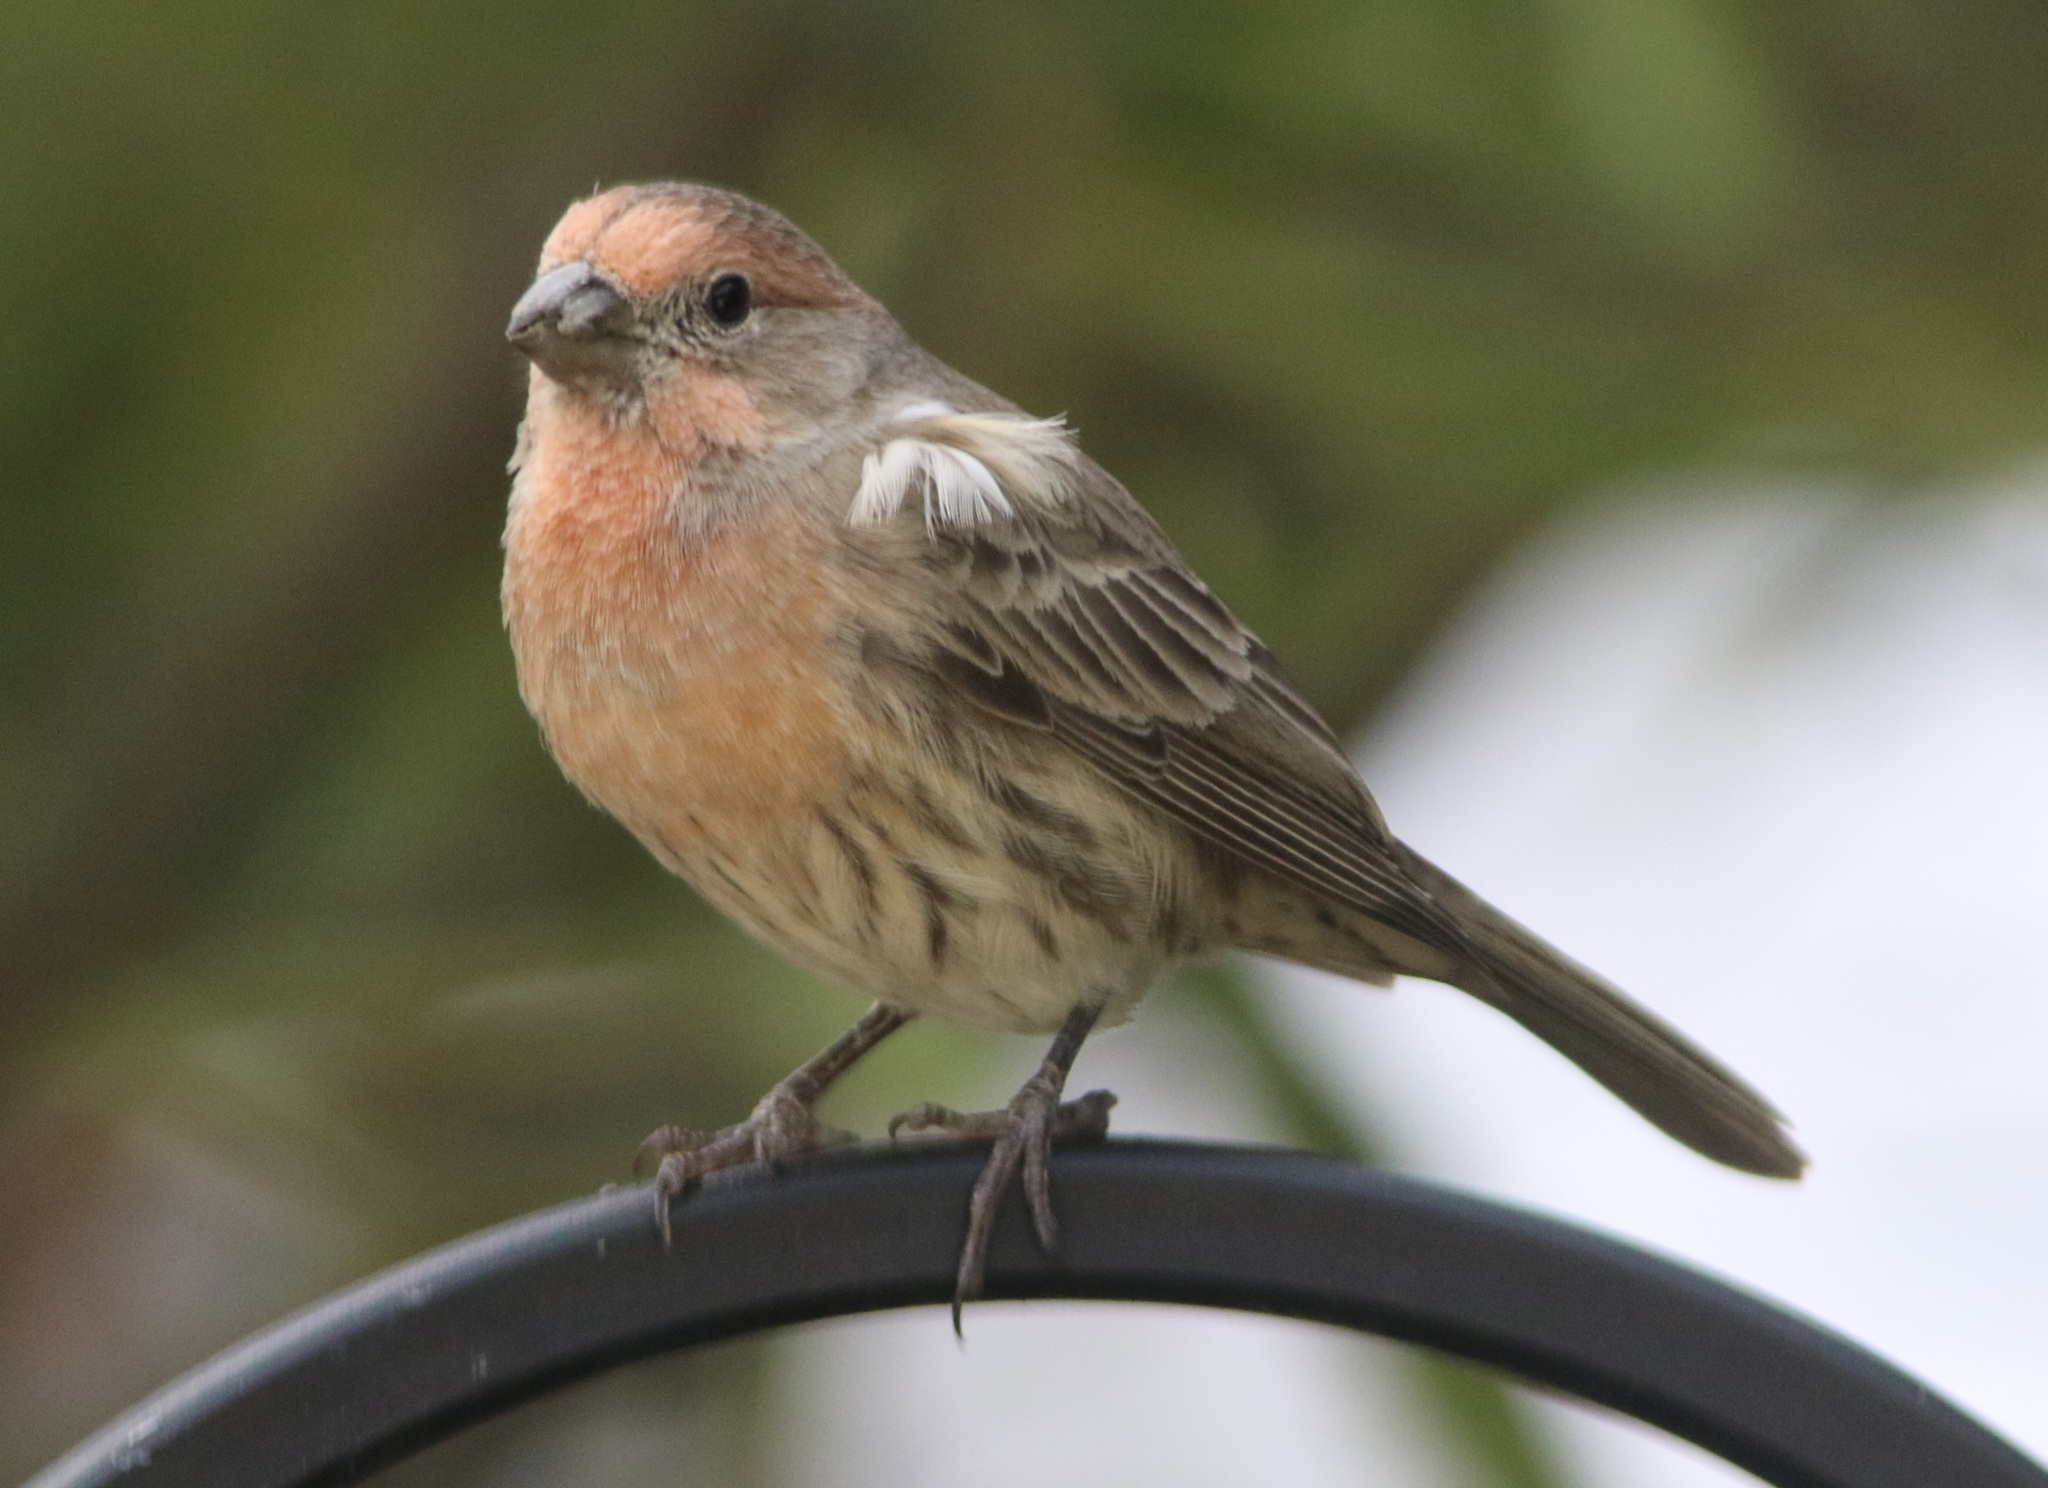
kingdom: Animalia
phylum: Chordata
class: Aves
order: Passeriformes
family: Fringillidae
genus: Haemorhous
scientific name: Haemorhous mexicanus
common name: House finch
